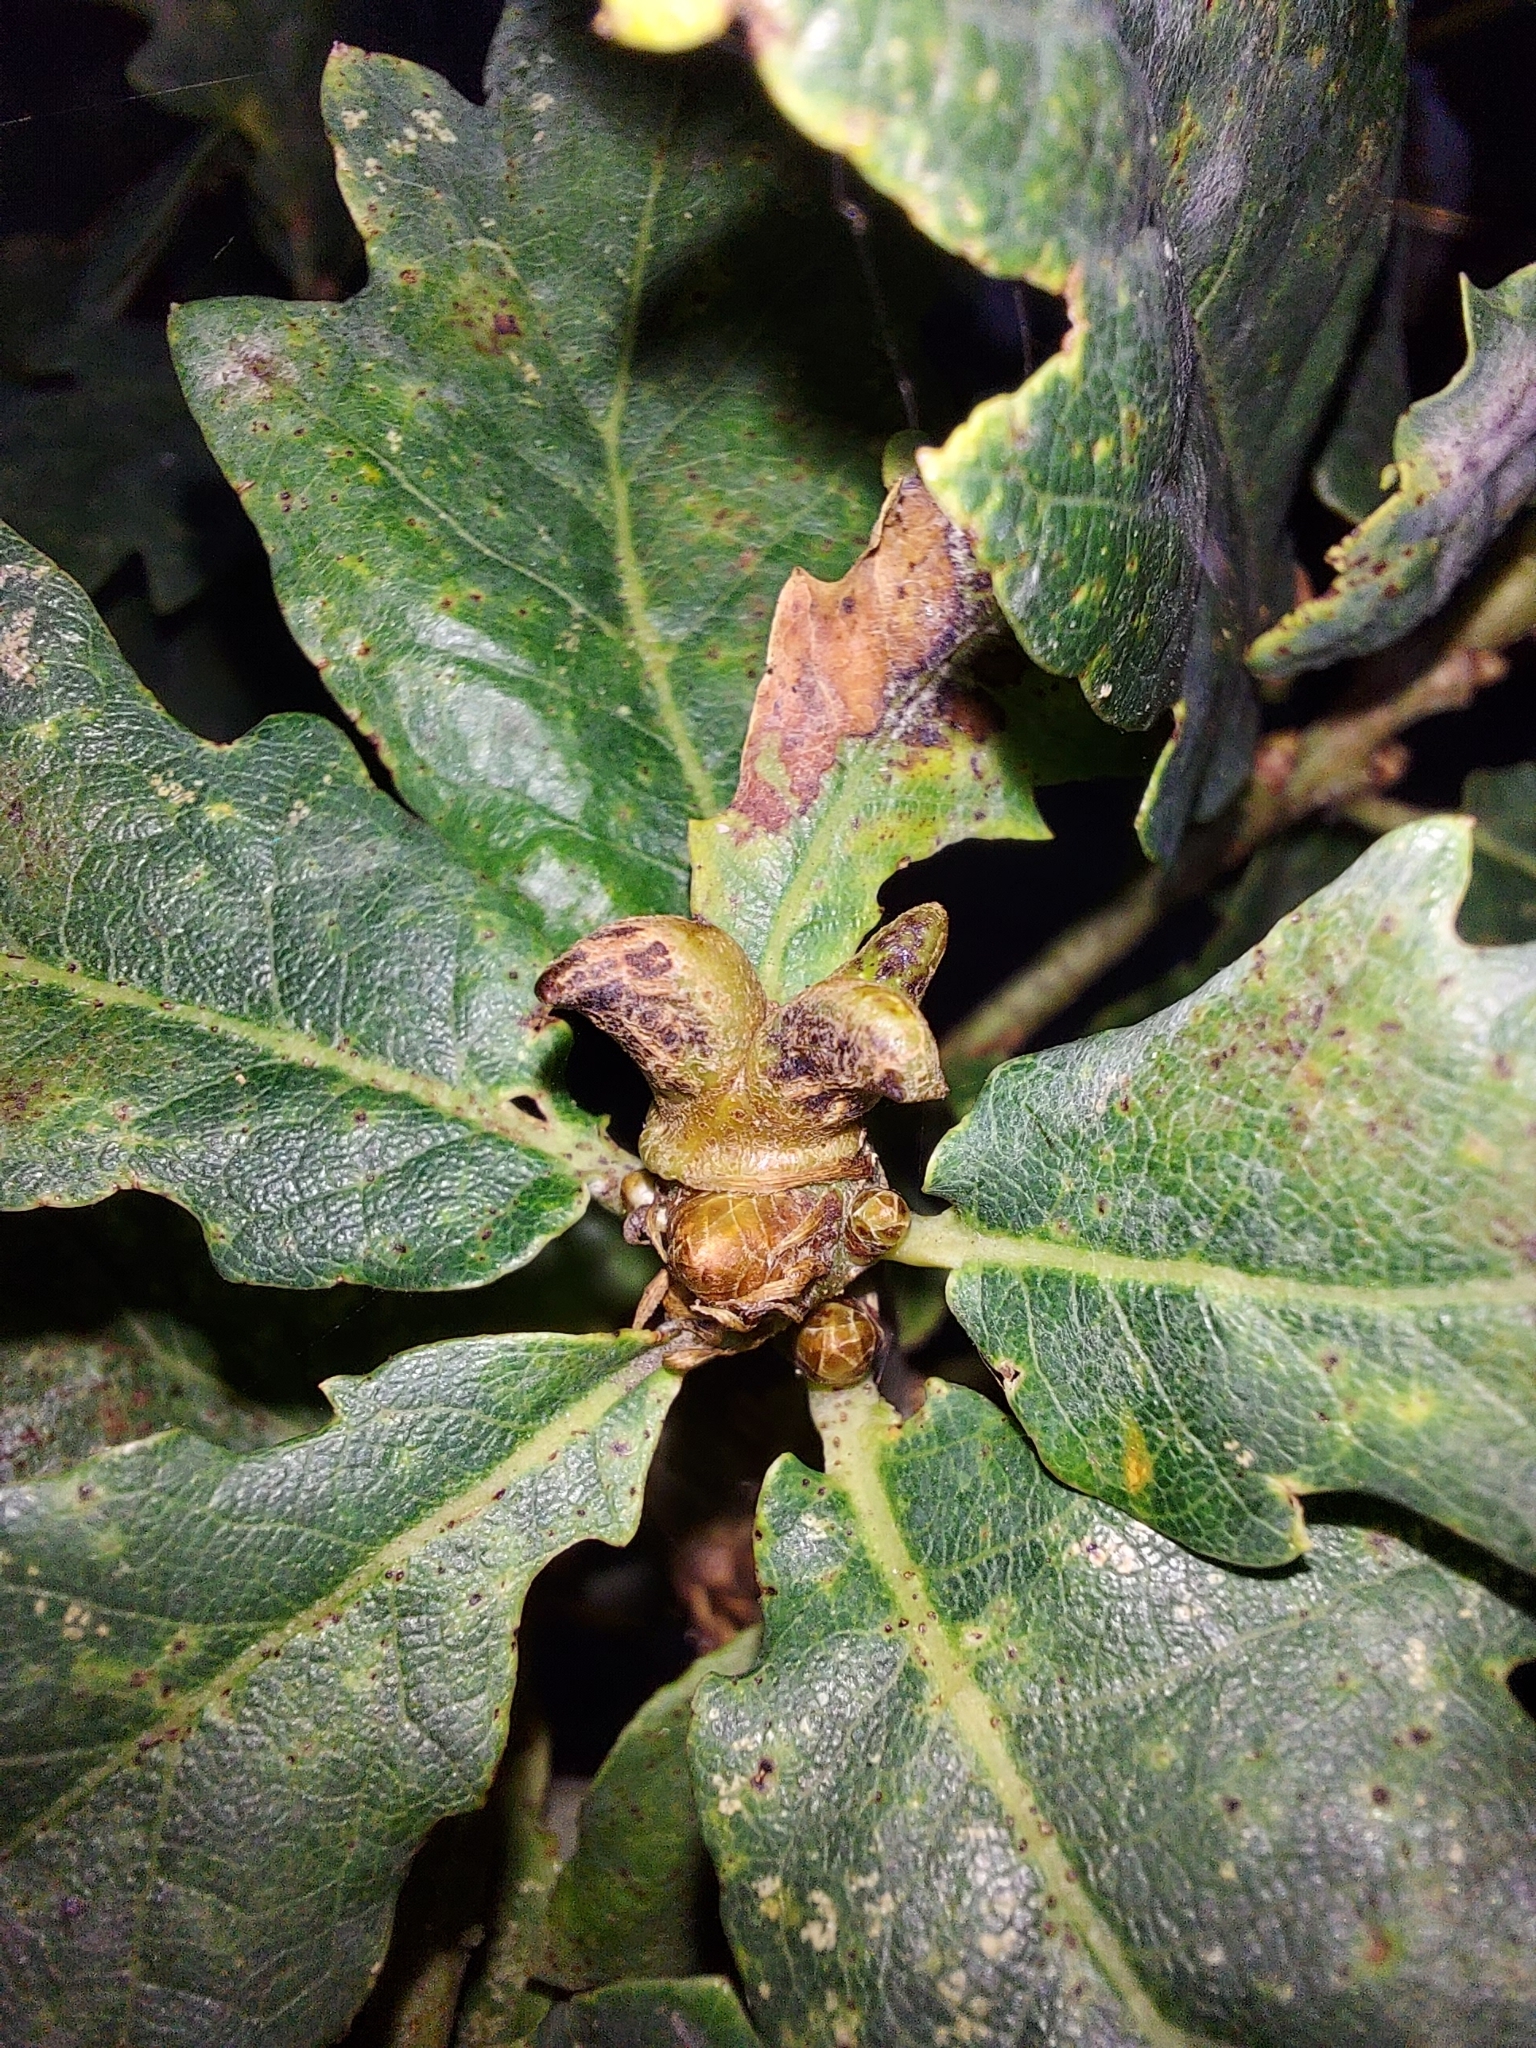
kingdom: Animalia
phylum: Arthropoda
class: Insecta
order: Hymenoptera
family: Cynipidae
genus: Andricus
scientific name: Andricus aries
